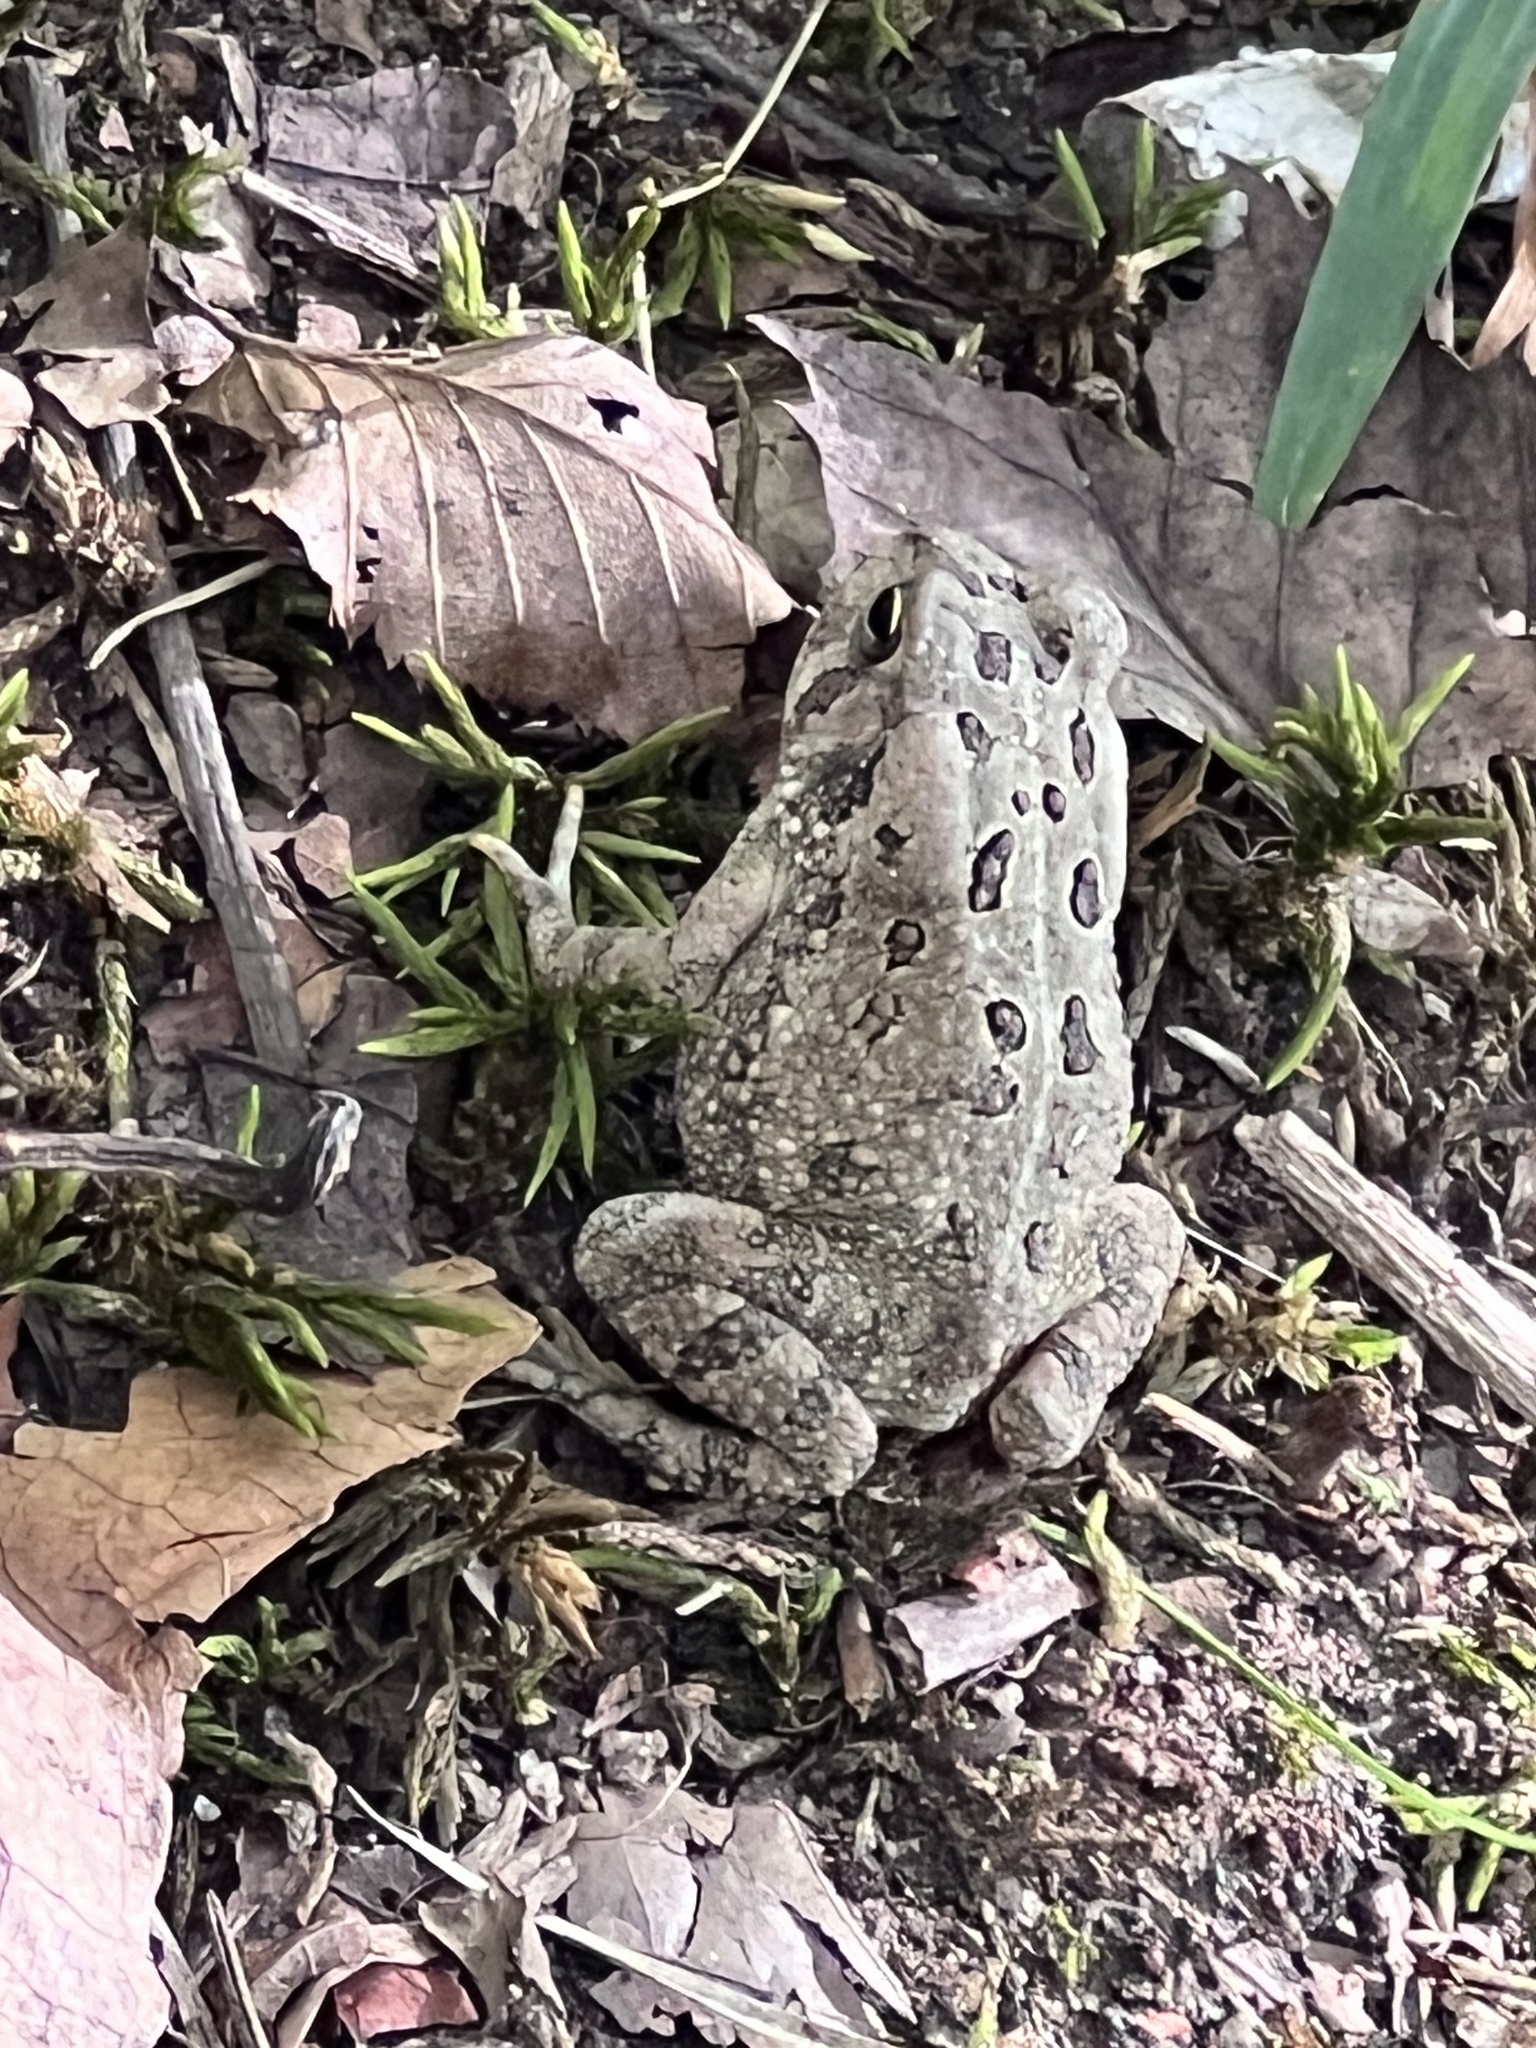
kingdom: Animalia
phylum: Chordata
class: Amphibia
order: Anura
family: Bufonidae
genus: Anaxyrus
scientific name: Anaxyrus fowleri
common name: Fowler's toad
